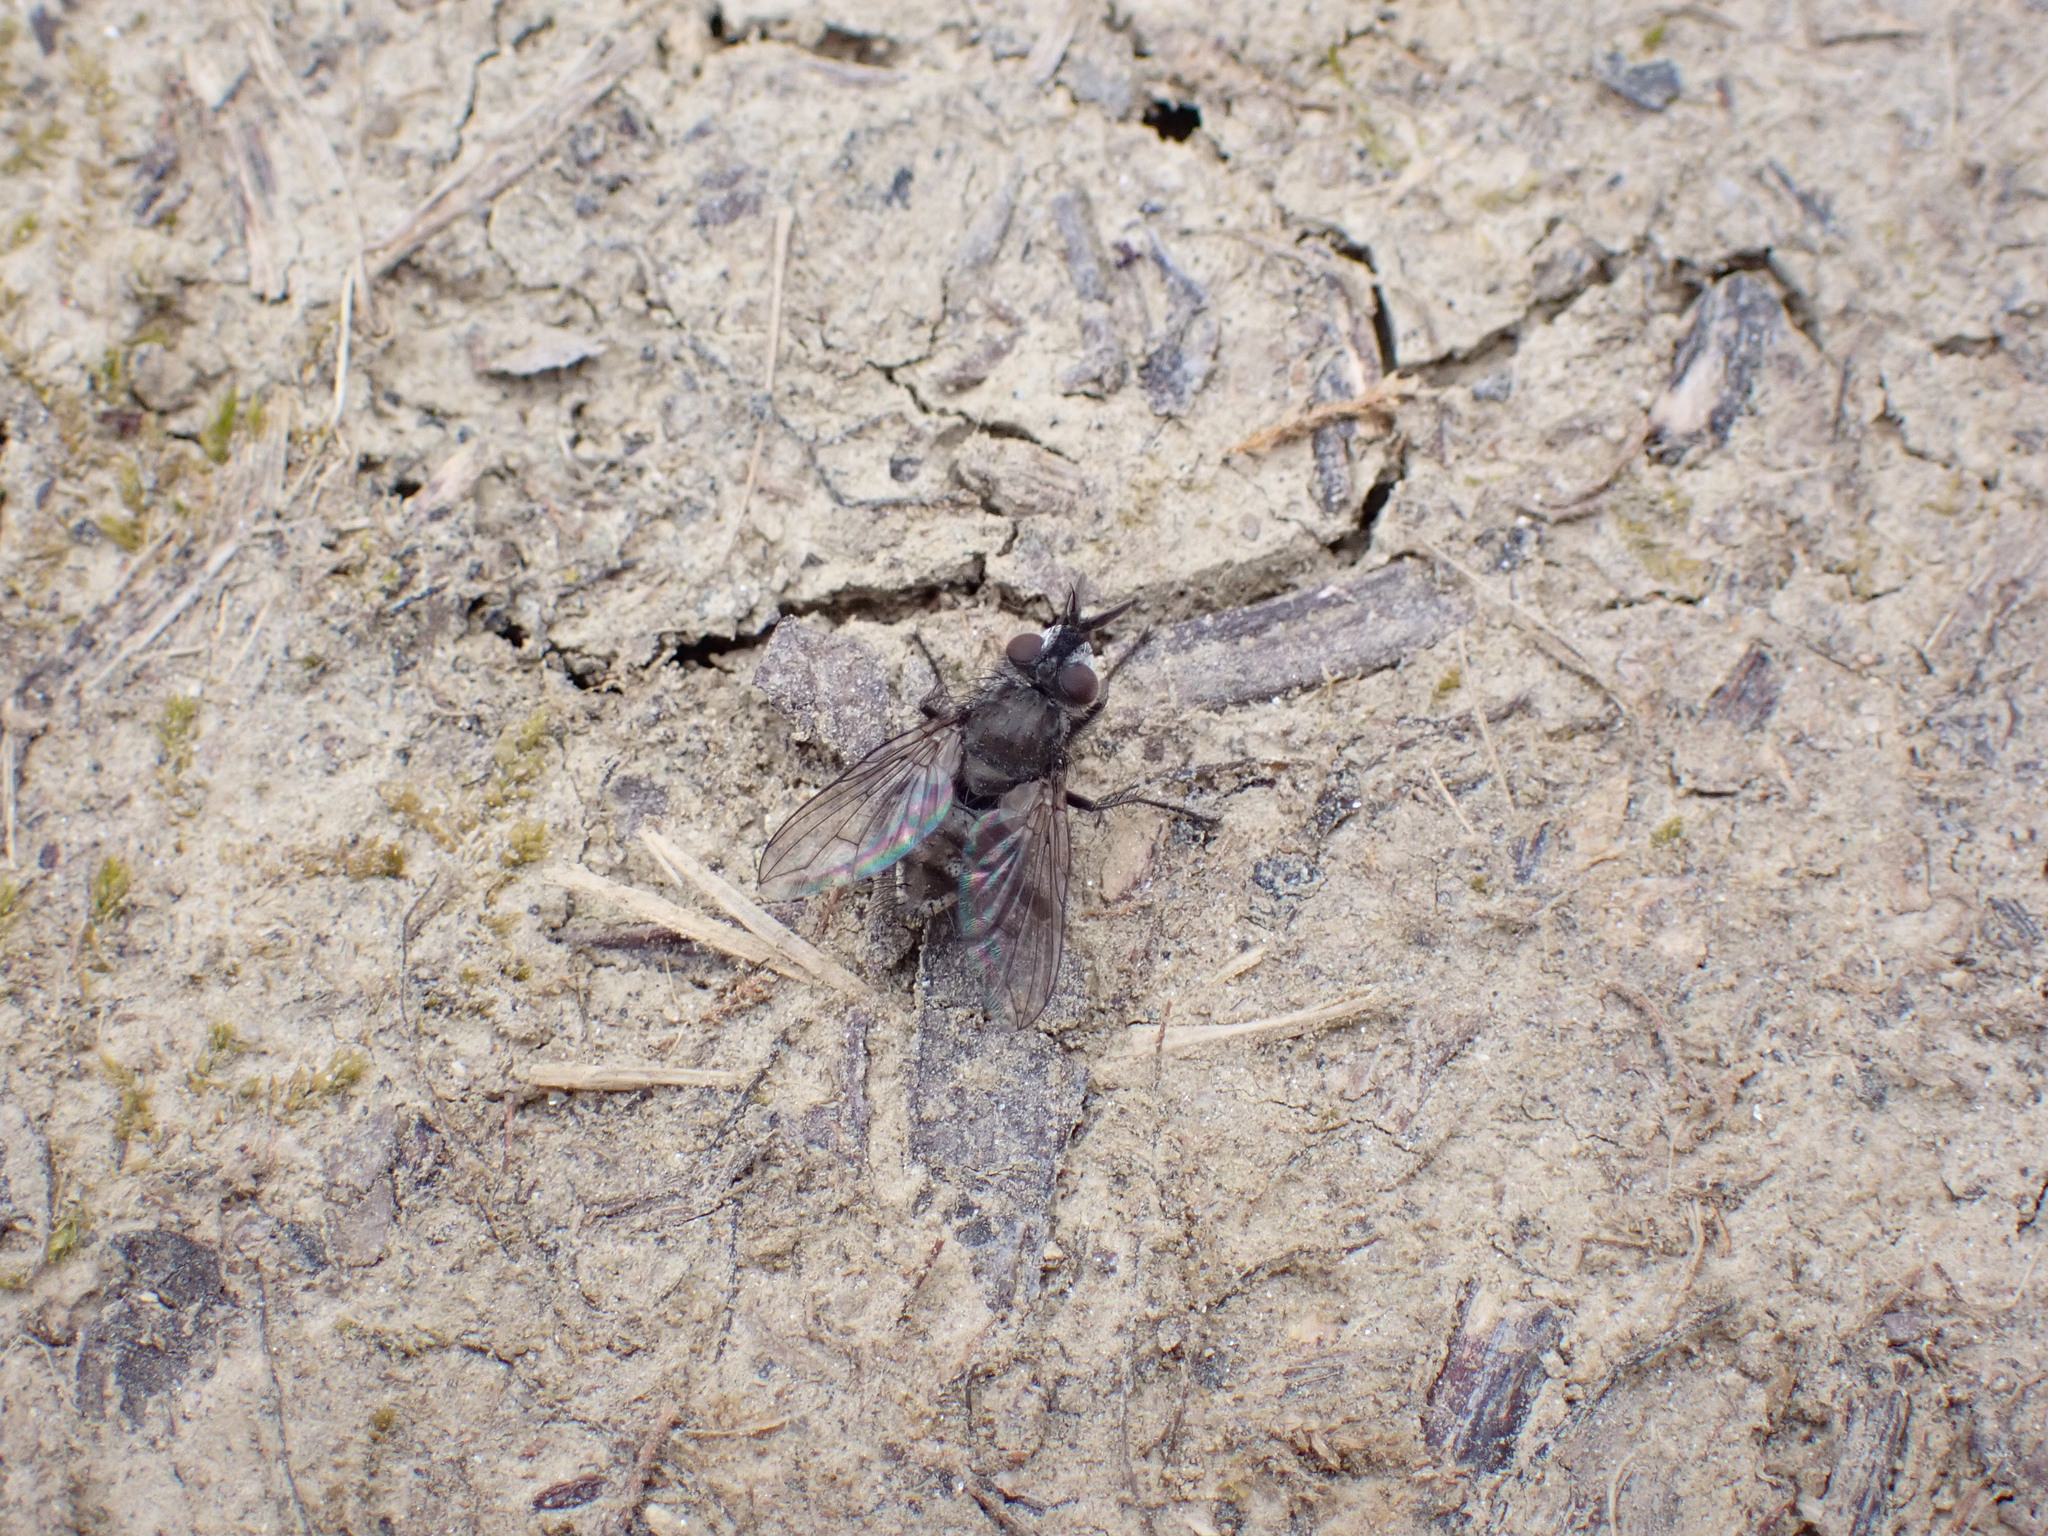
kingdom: Animalia
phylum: Arthropoda
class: Insecta
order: Diptera
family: Tachinidae
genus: Campylocheta
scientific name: Campylocheta praecox
